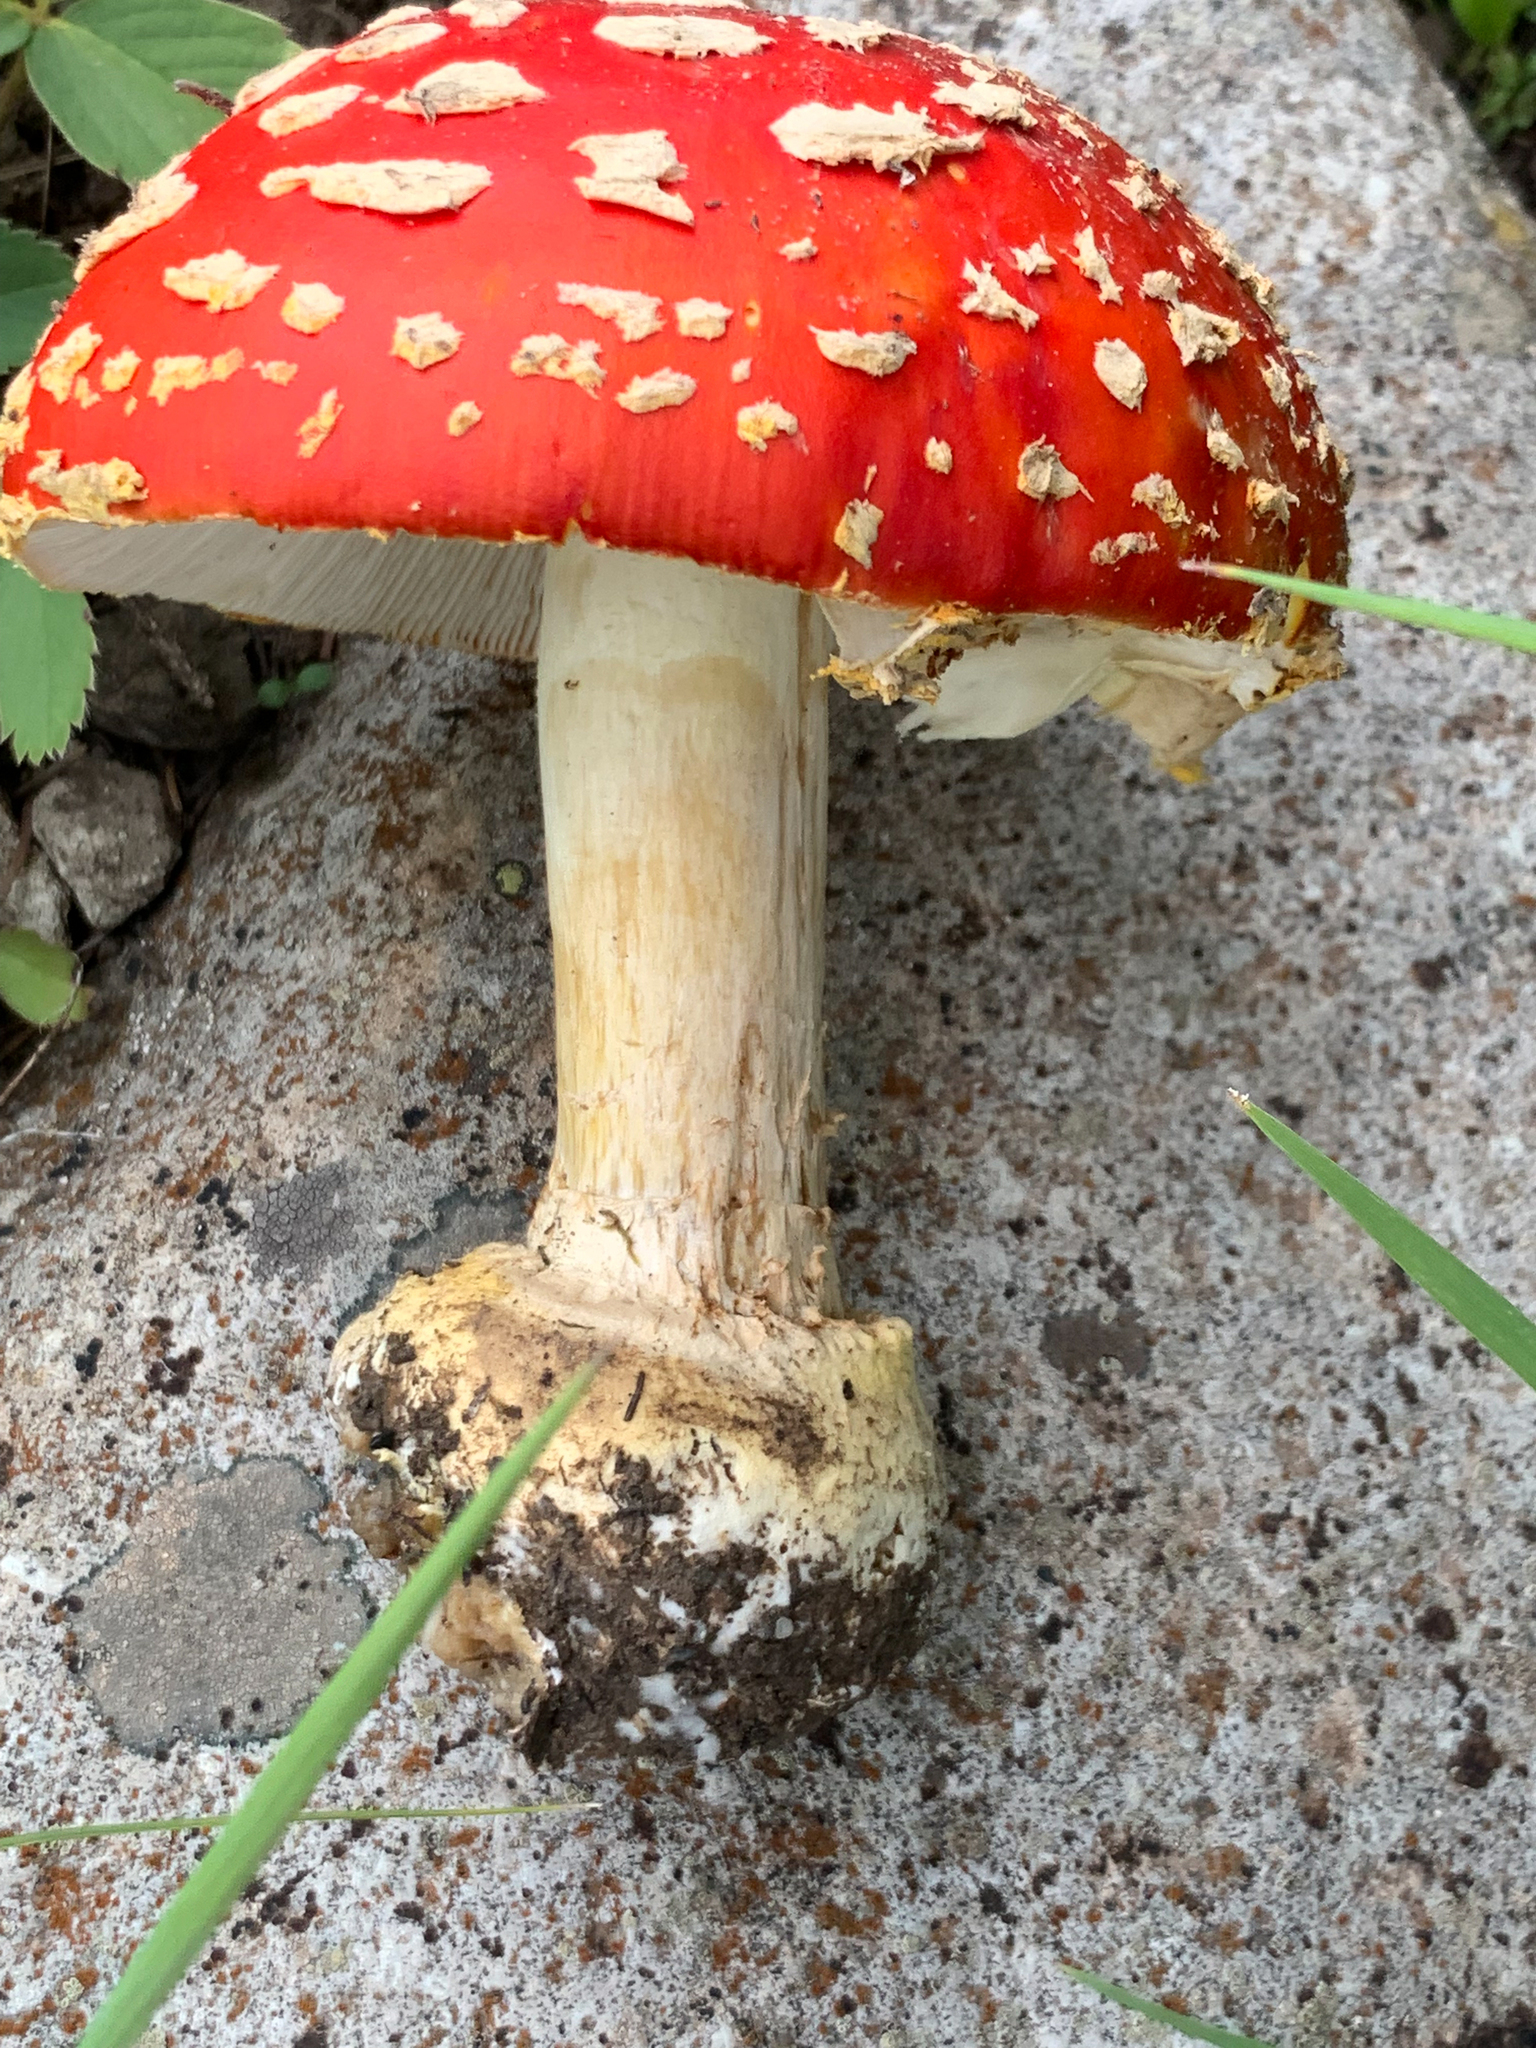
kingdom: Fungi
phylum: Basidiomycota
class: Agaricomycetes
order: Agaricales
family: Amanitaceae
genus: Amanita
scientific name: Amanita muscaria
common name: Fly agaric
